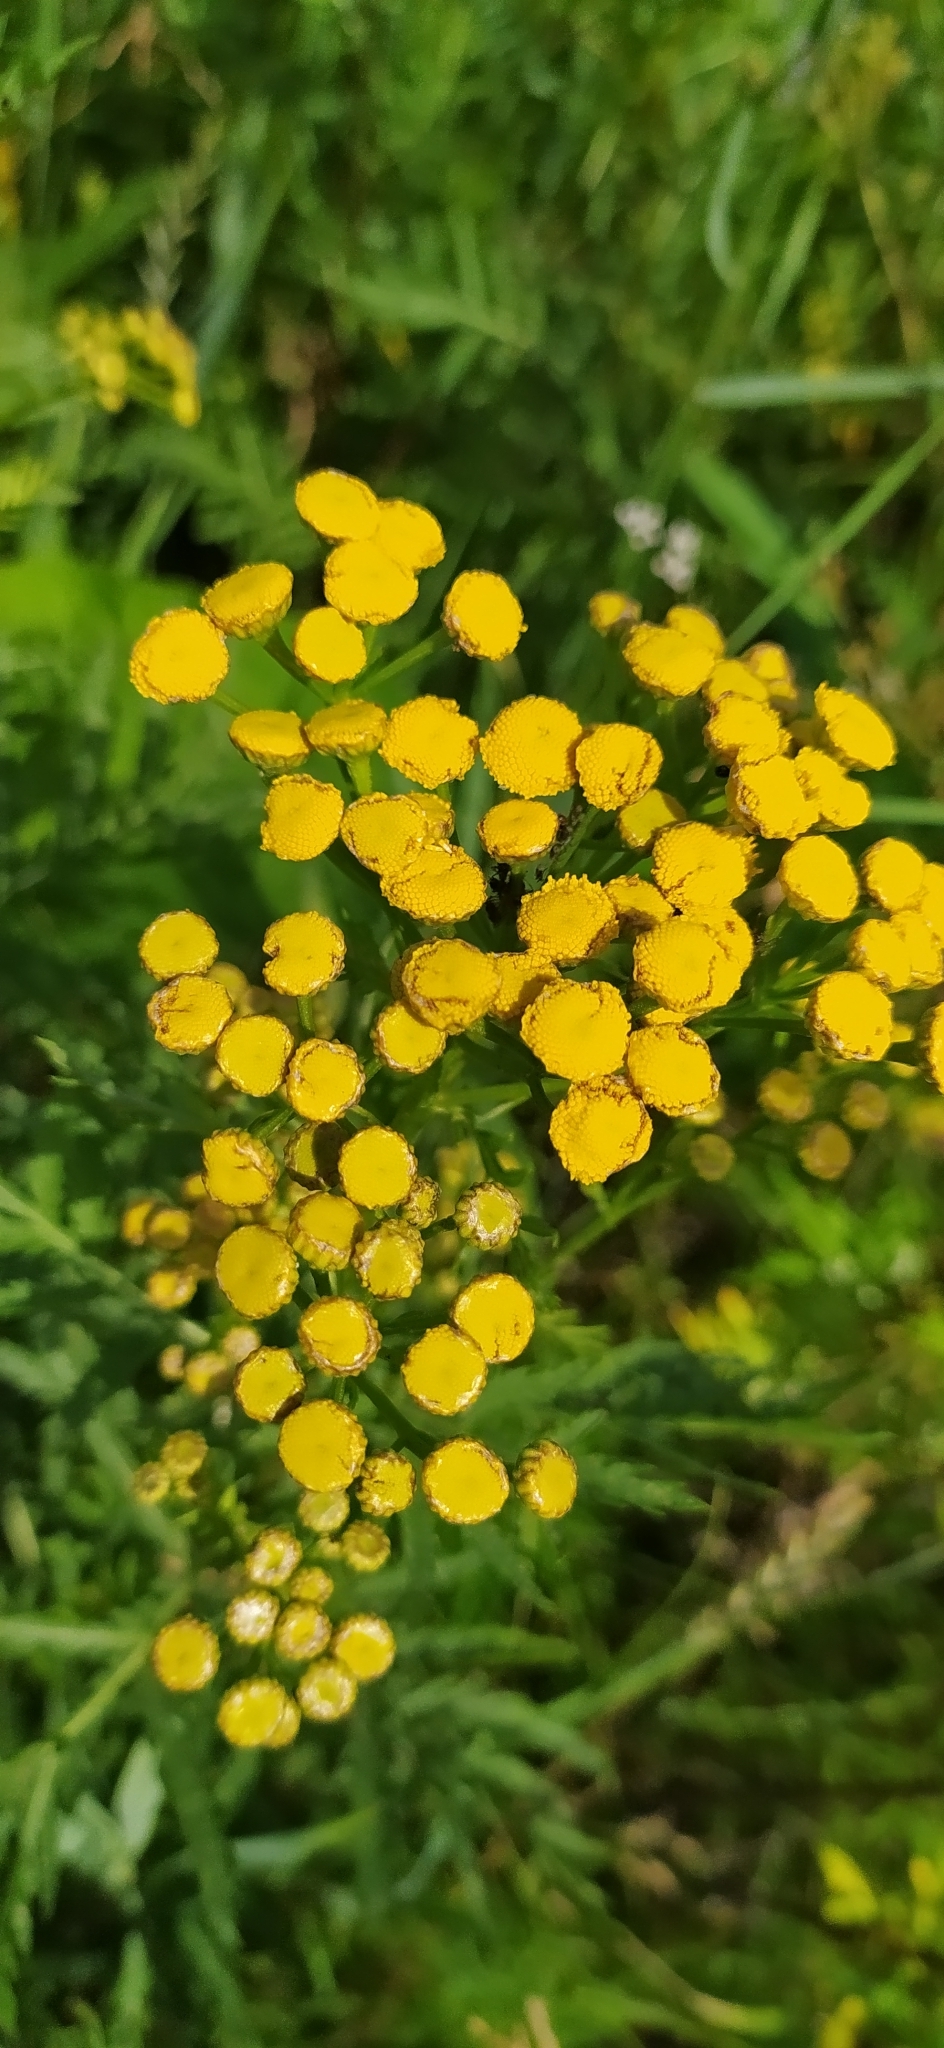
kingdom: Plantae
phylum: Tracheophyta
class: Magnoliopsida
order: Asterales
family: Asteraceae
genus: Tanacetum
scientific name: Tanacetum vulgare
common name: Common tansy
